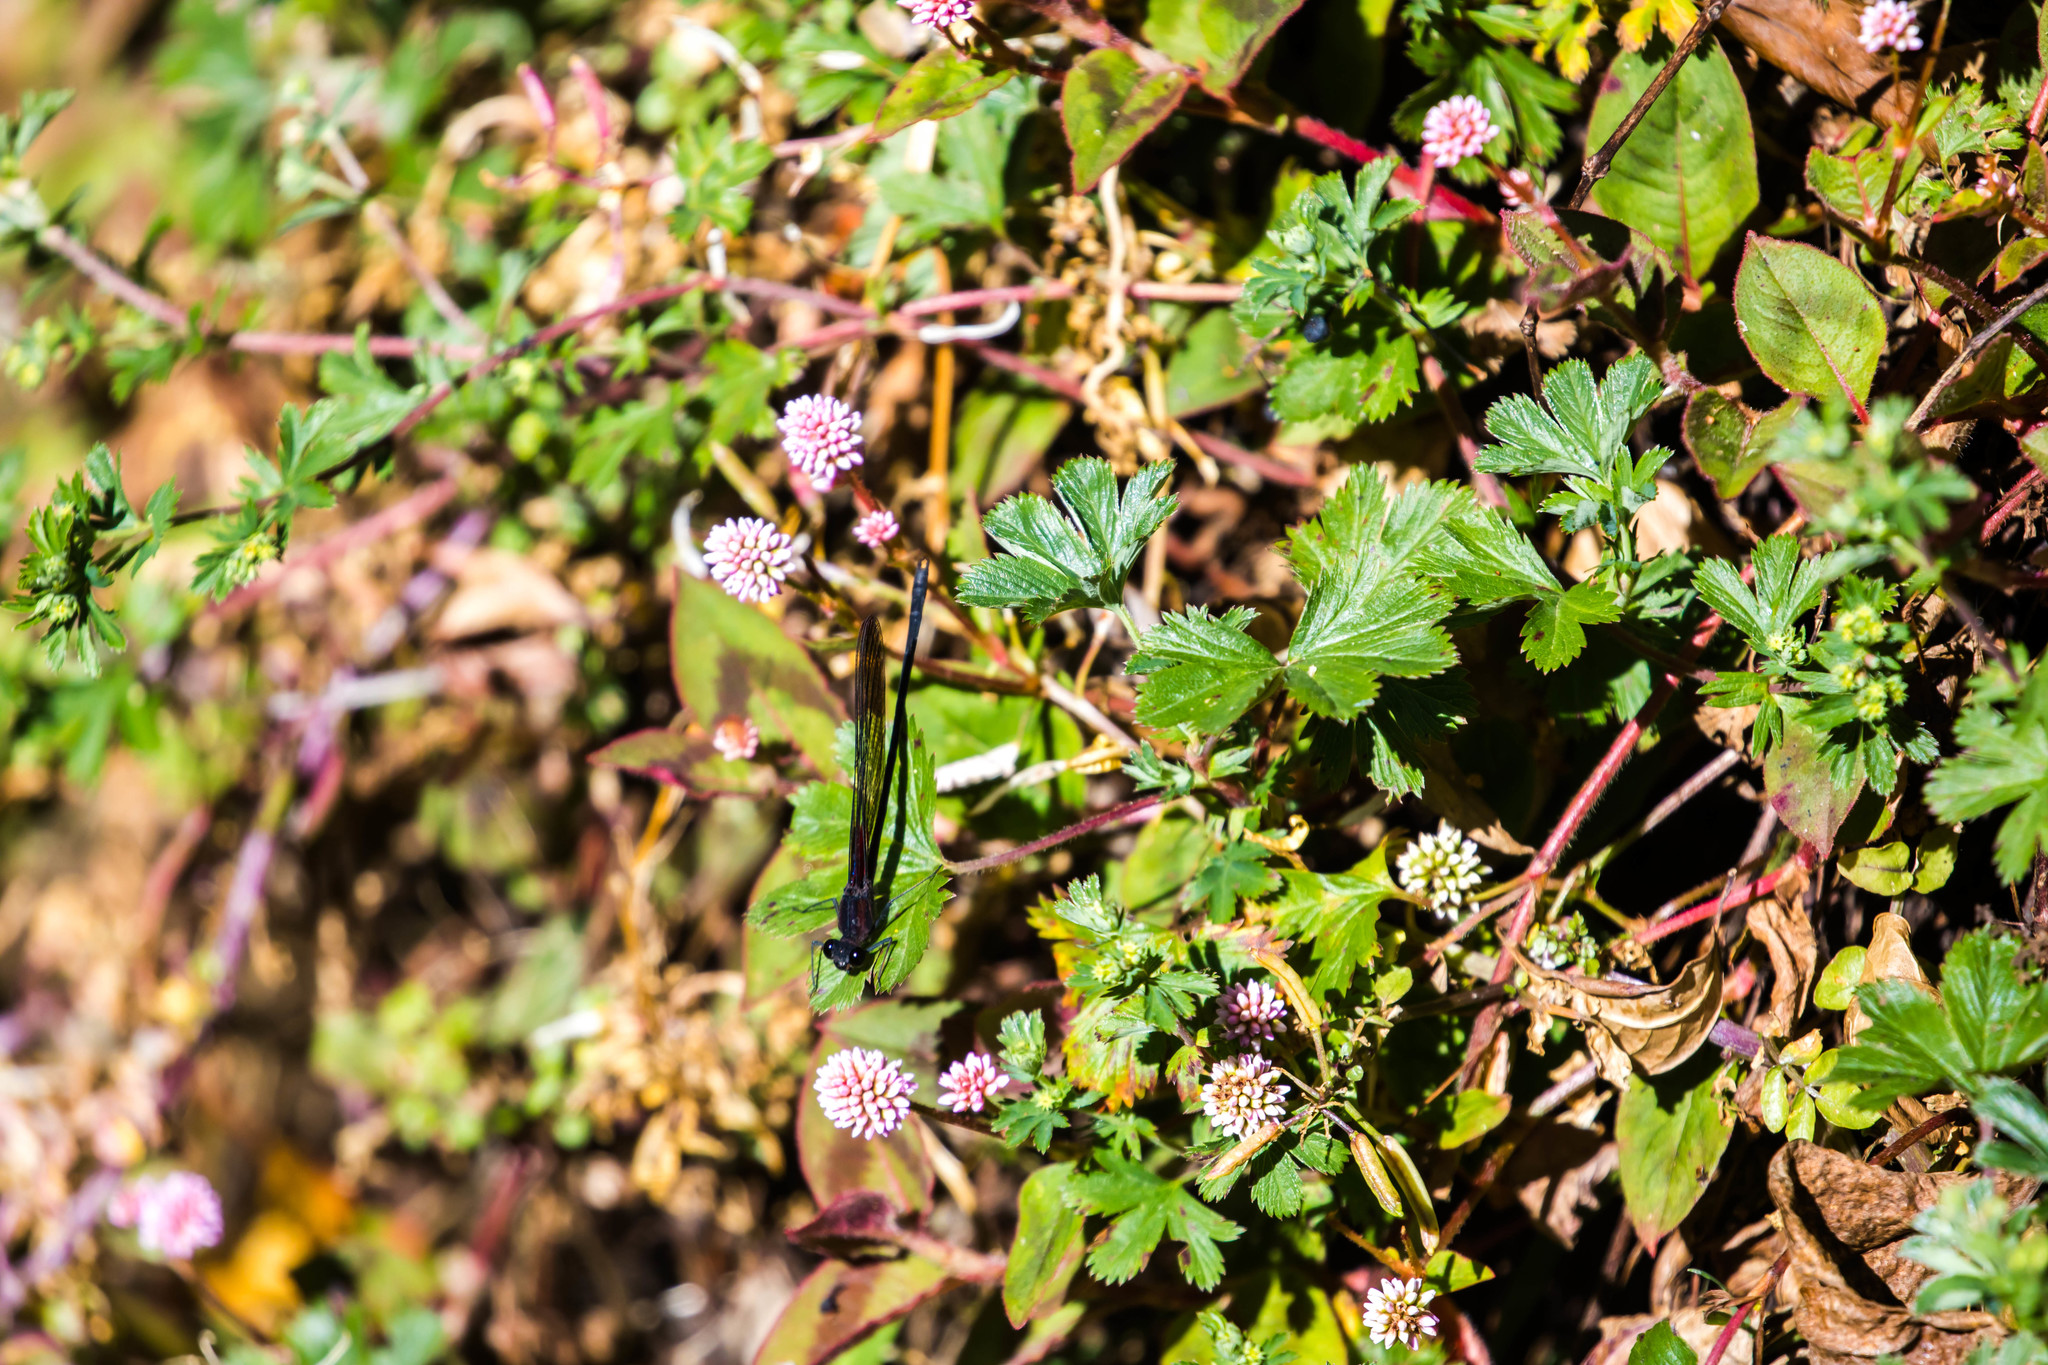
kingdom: Animalia
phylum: Arthropoda
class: Insecta
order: Odonata
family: Calopterygidae
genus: Hetaerina
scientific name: Hetaerina cruentata
